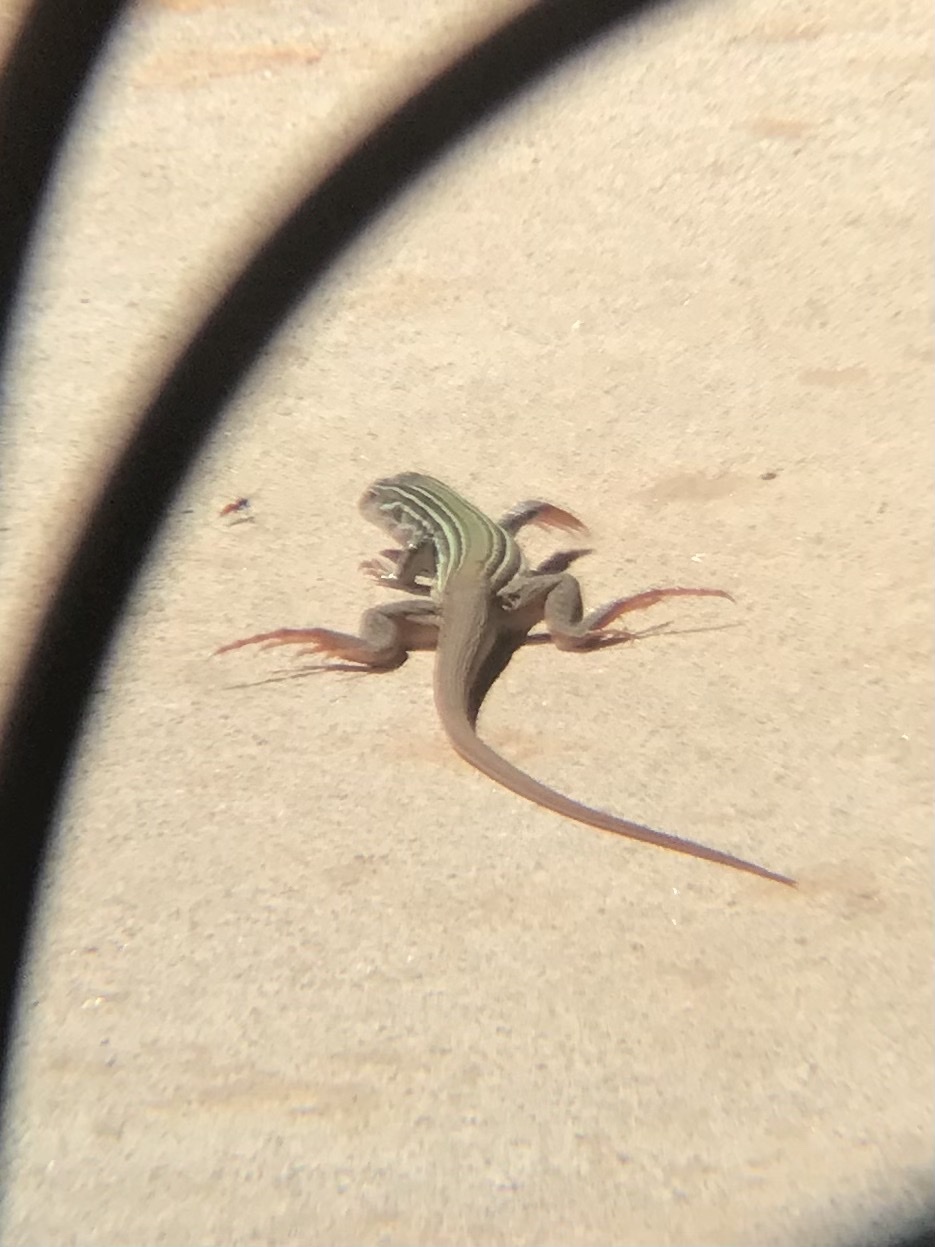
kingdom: Animalia
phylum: Chordata
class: Squamata
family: Teiidae
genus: Aspidoscelis
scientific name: Aspidoscelis gularis
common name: Eastern spotted whiptail
